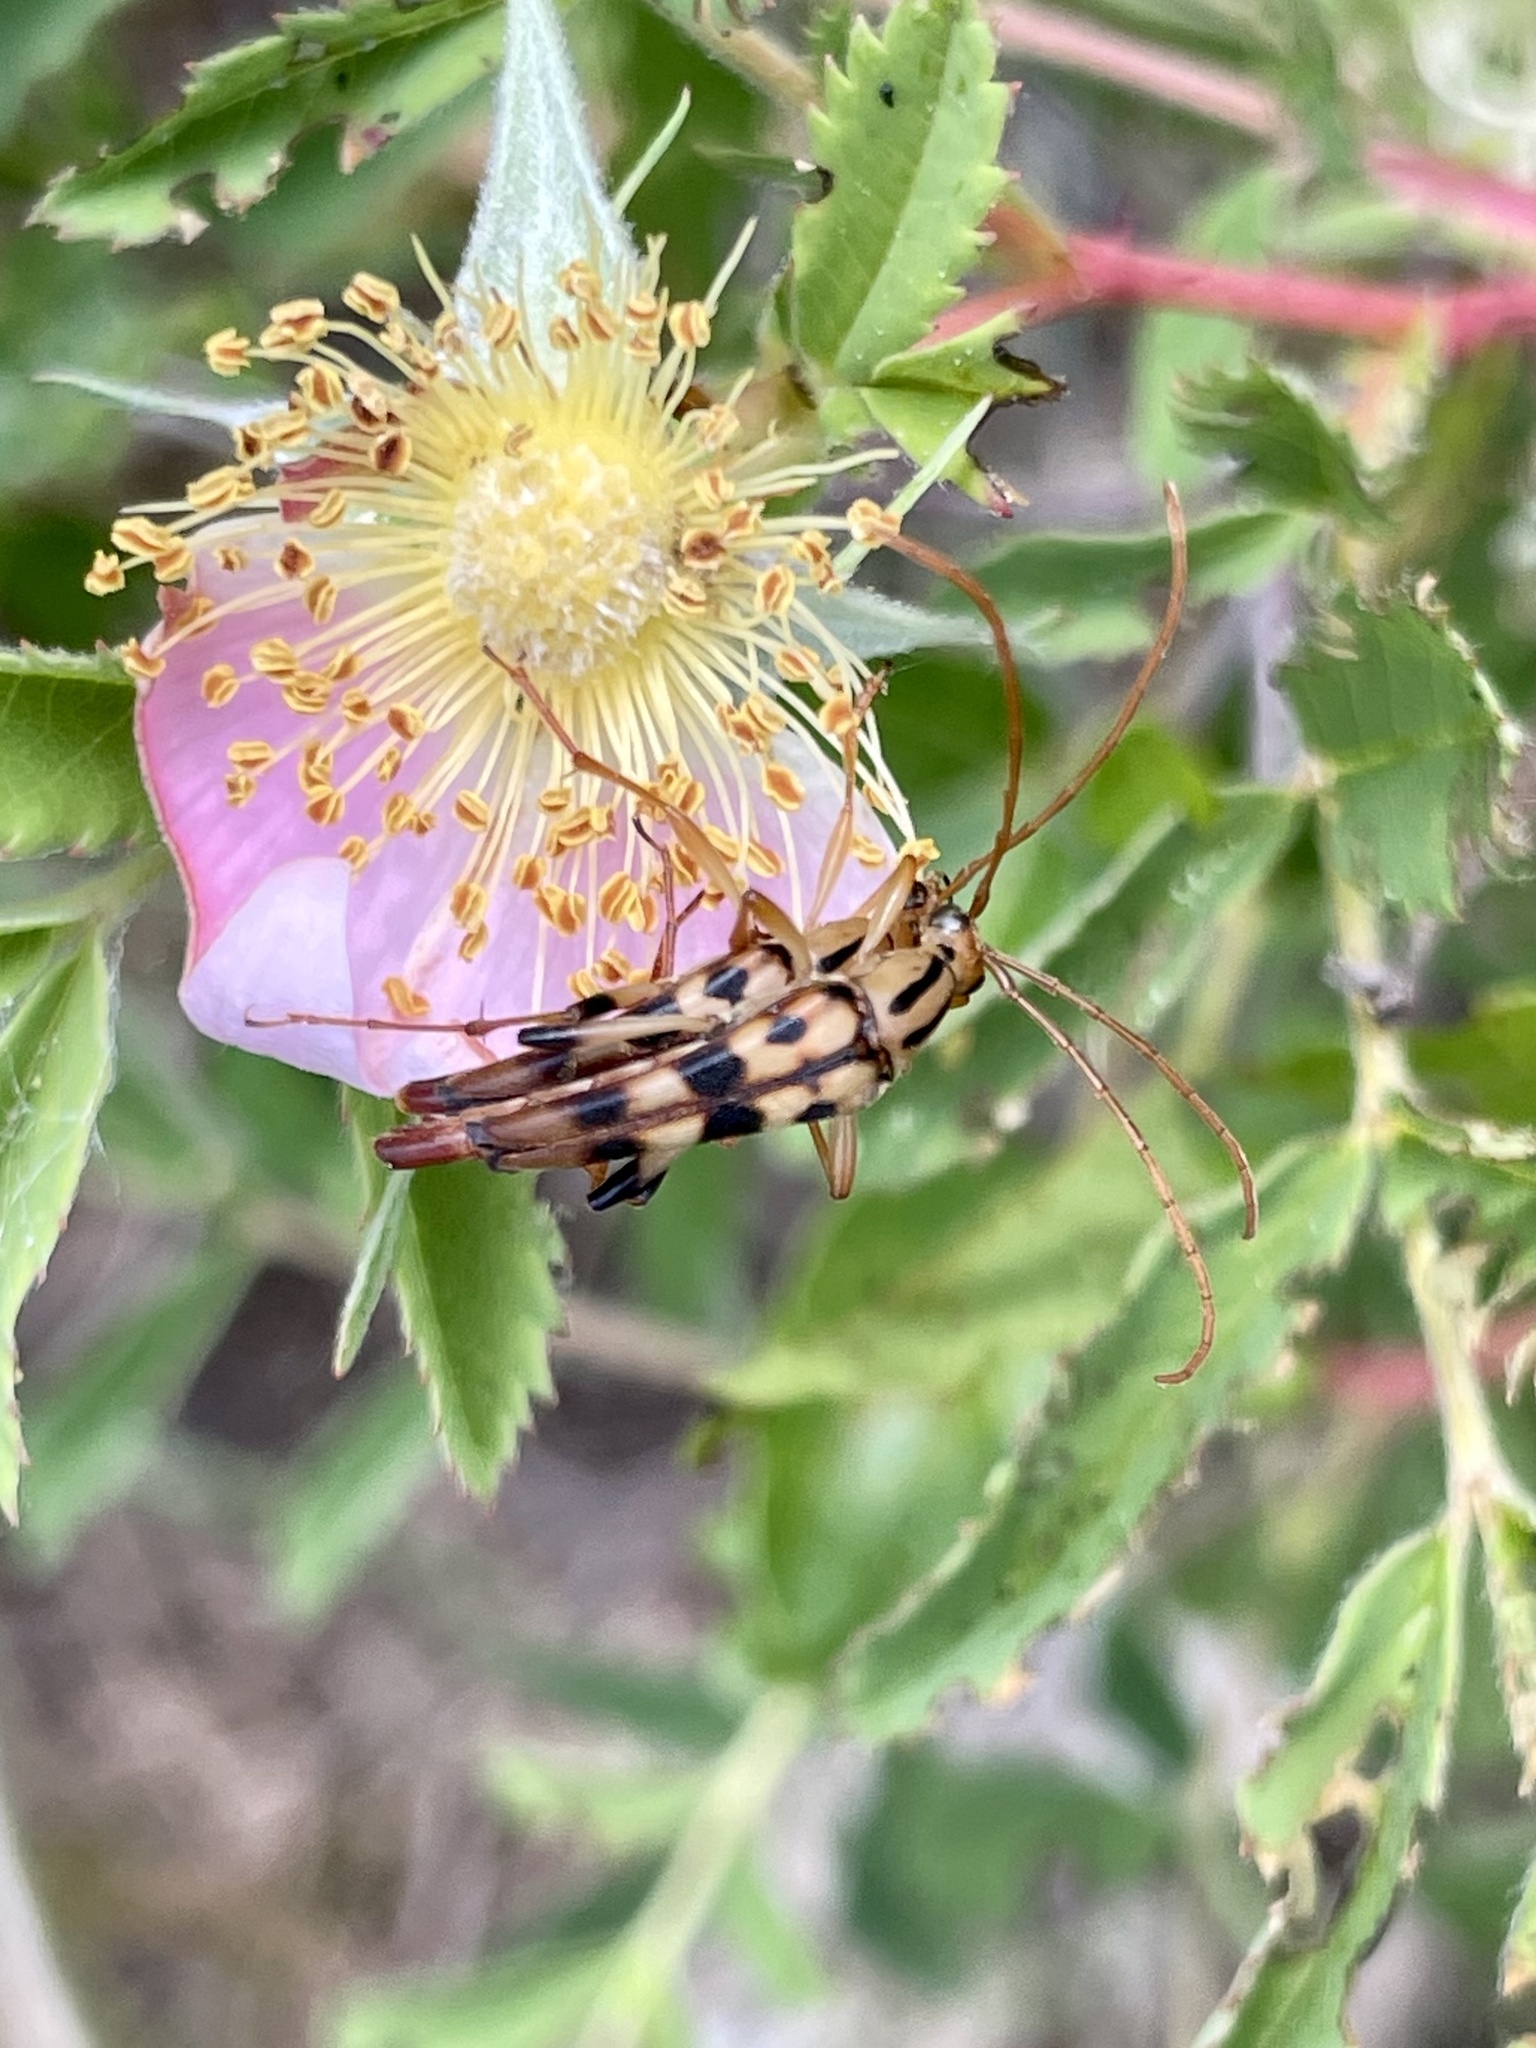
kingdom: Animalia
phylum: Arthropoda
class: Insecta
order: Coleoptera
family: Cerambycidae
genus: Strangalia
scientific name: Strangalia luteicornis
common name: Yellow-horned flower longhorn beetle
